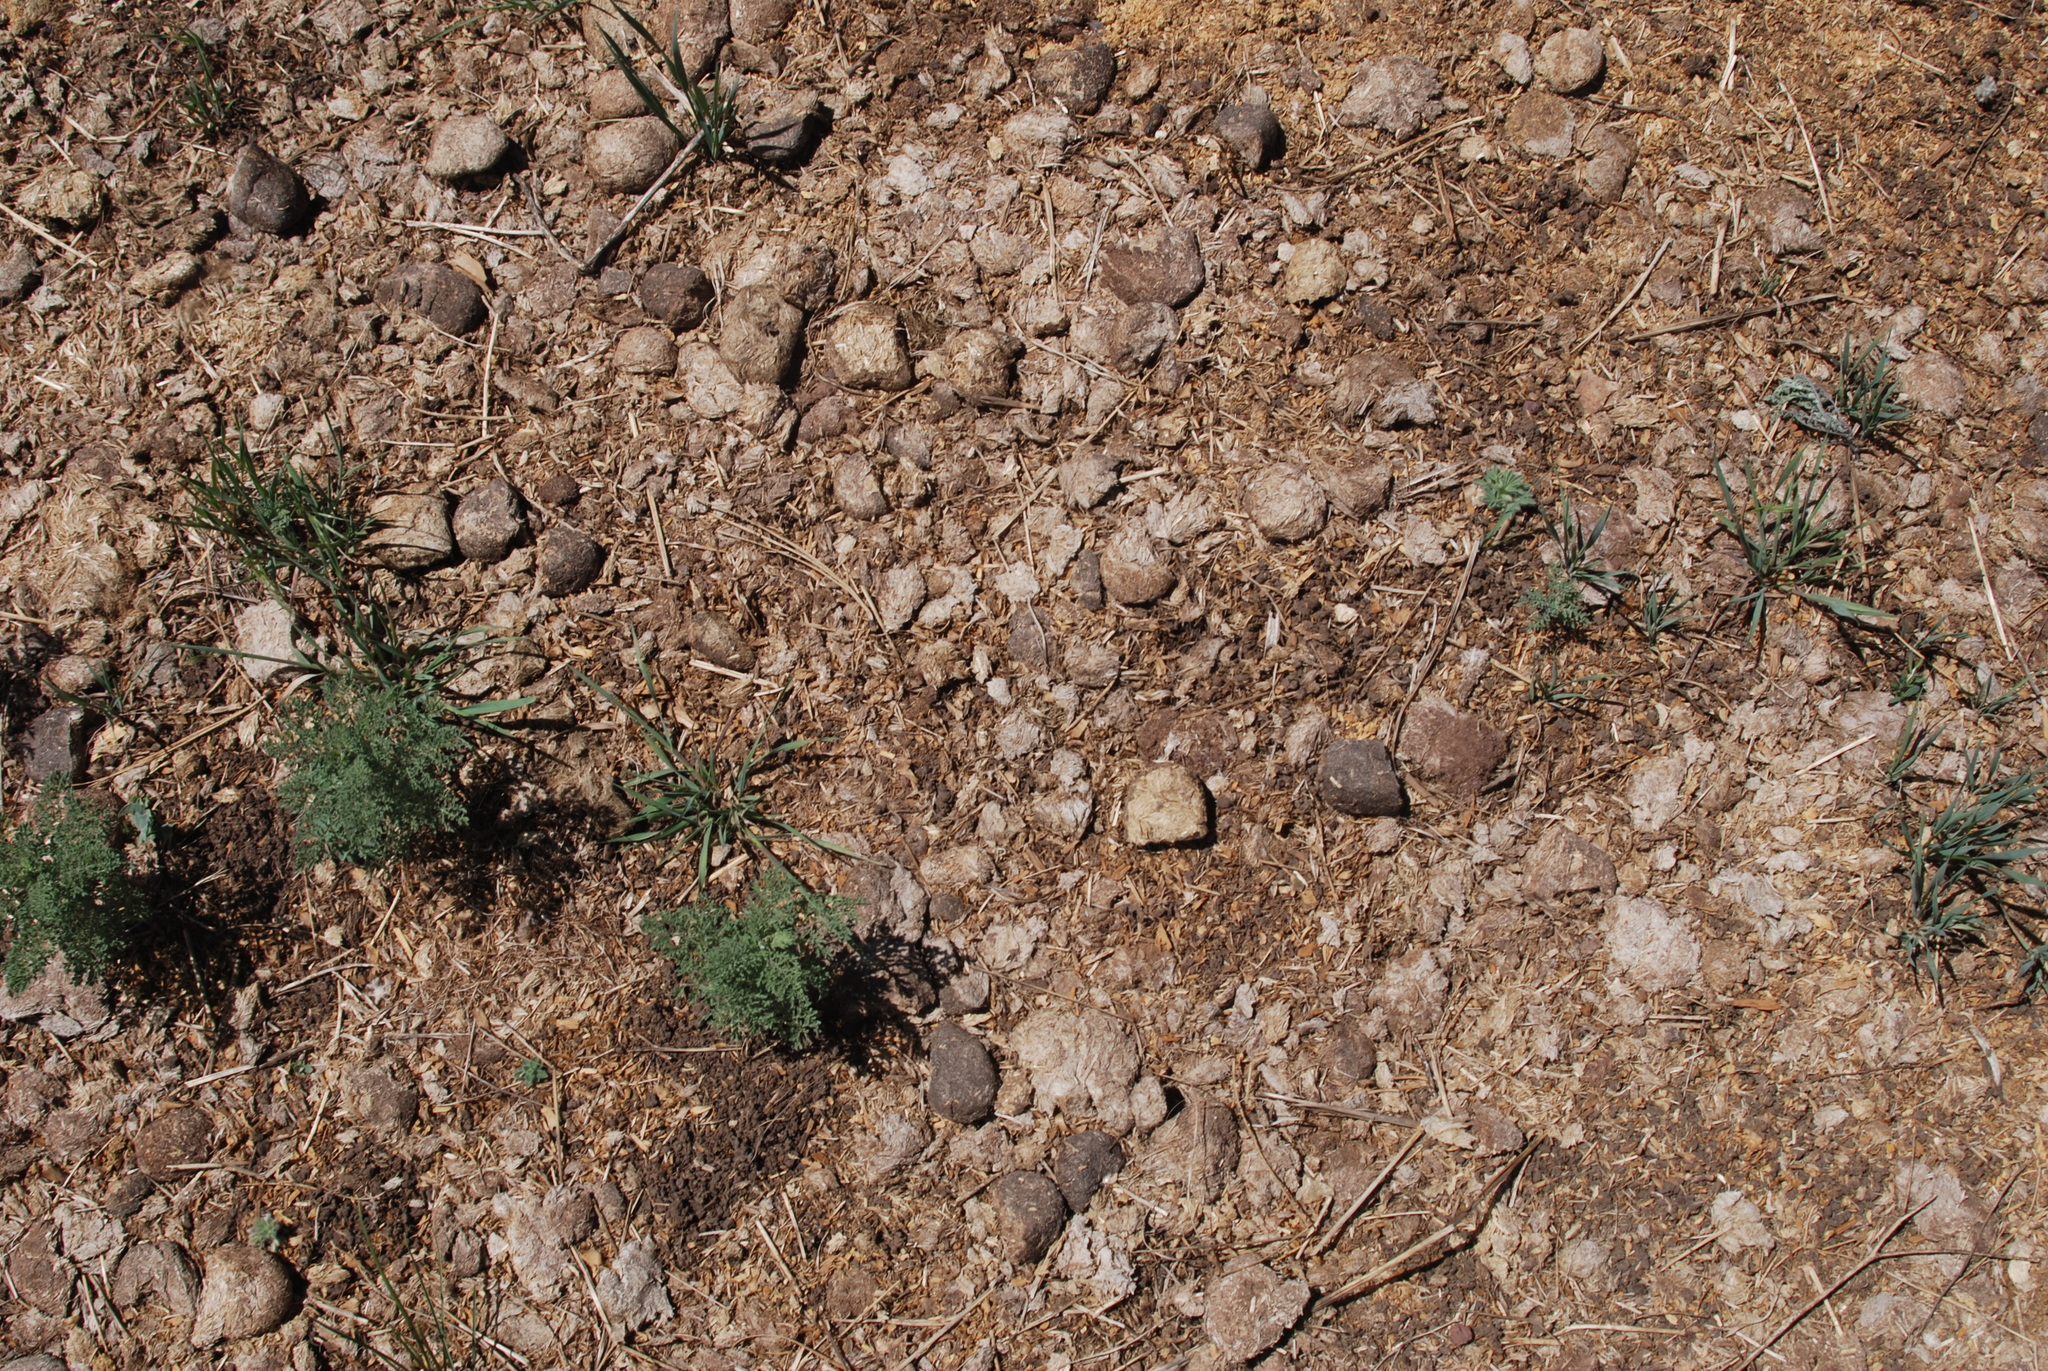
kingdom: Plantae
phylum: Tracheophyta
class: Magnoliopsida
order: Asterales
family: Asteraceae
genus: Achillea
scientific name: Achillea millefolium
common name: Yarrow
